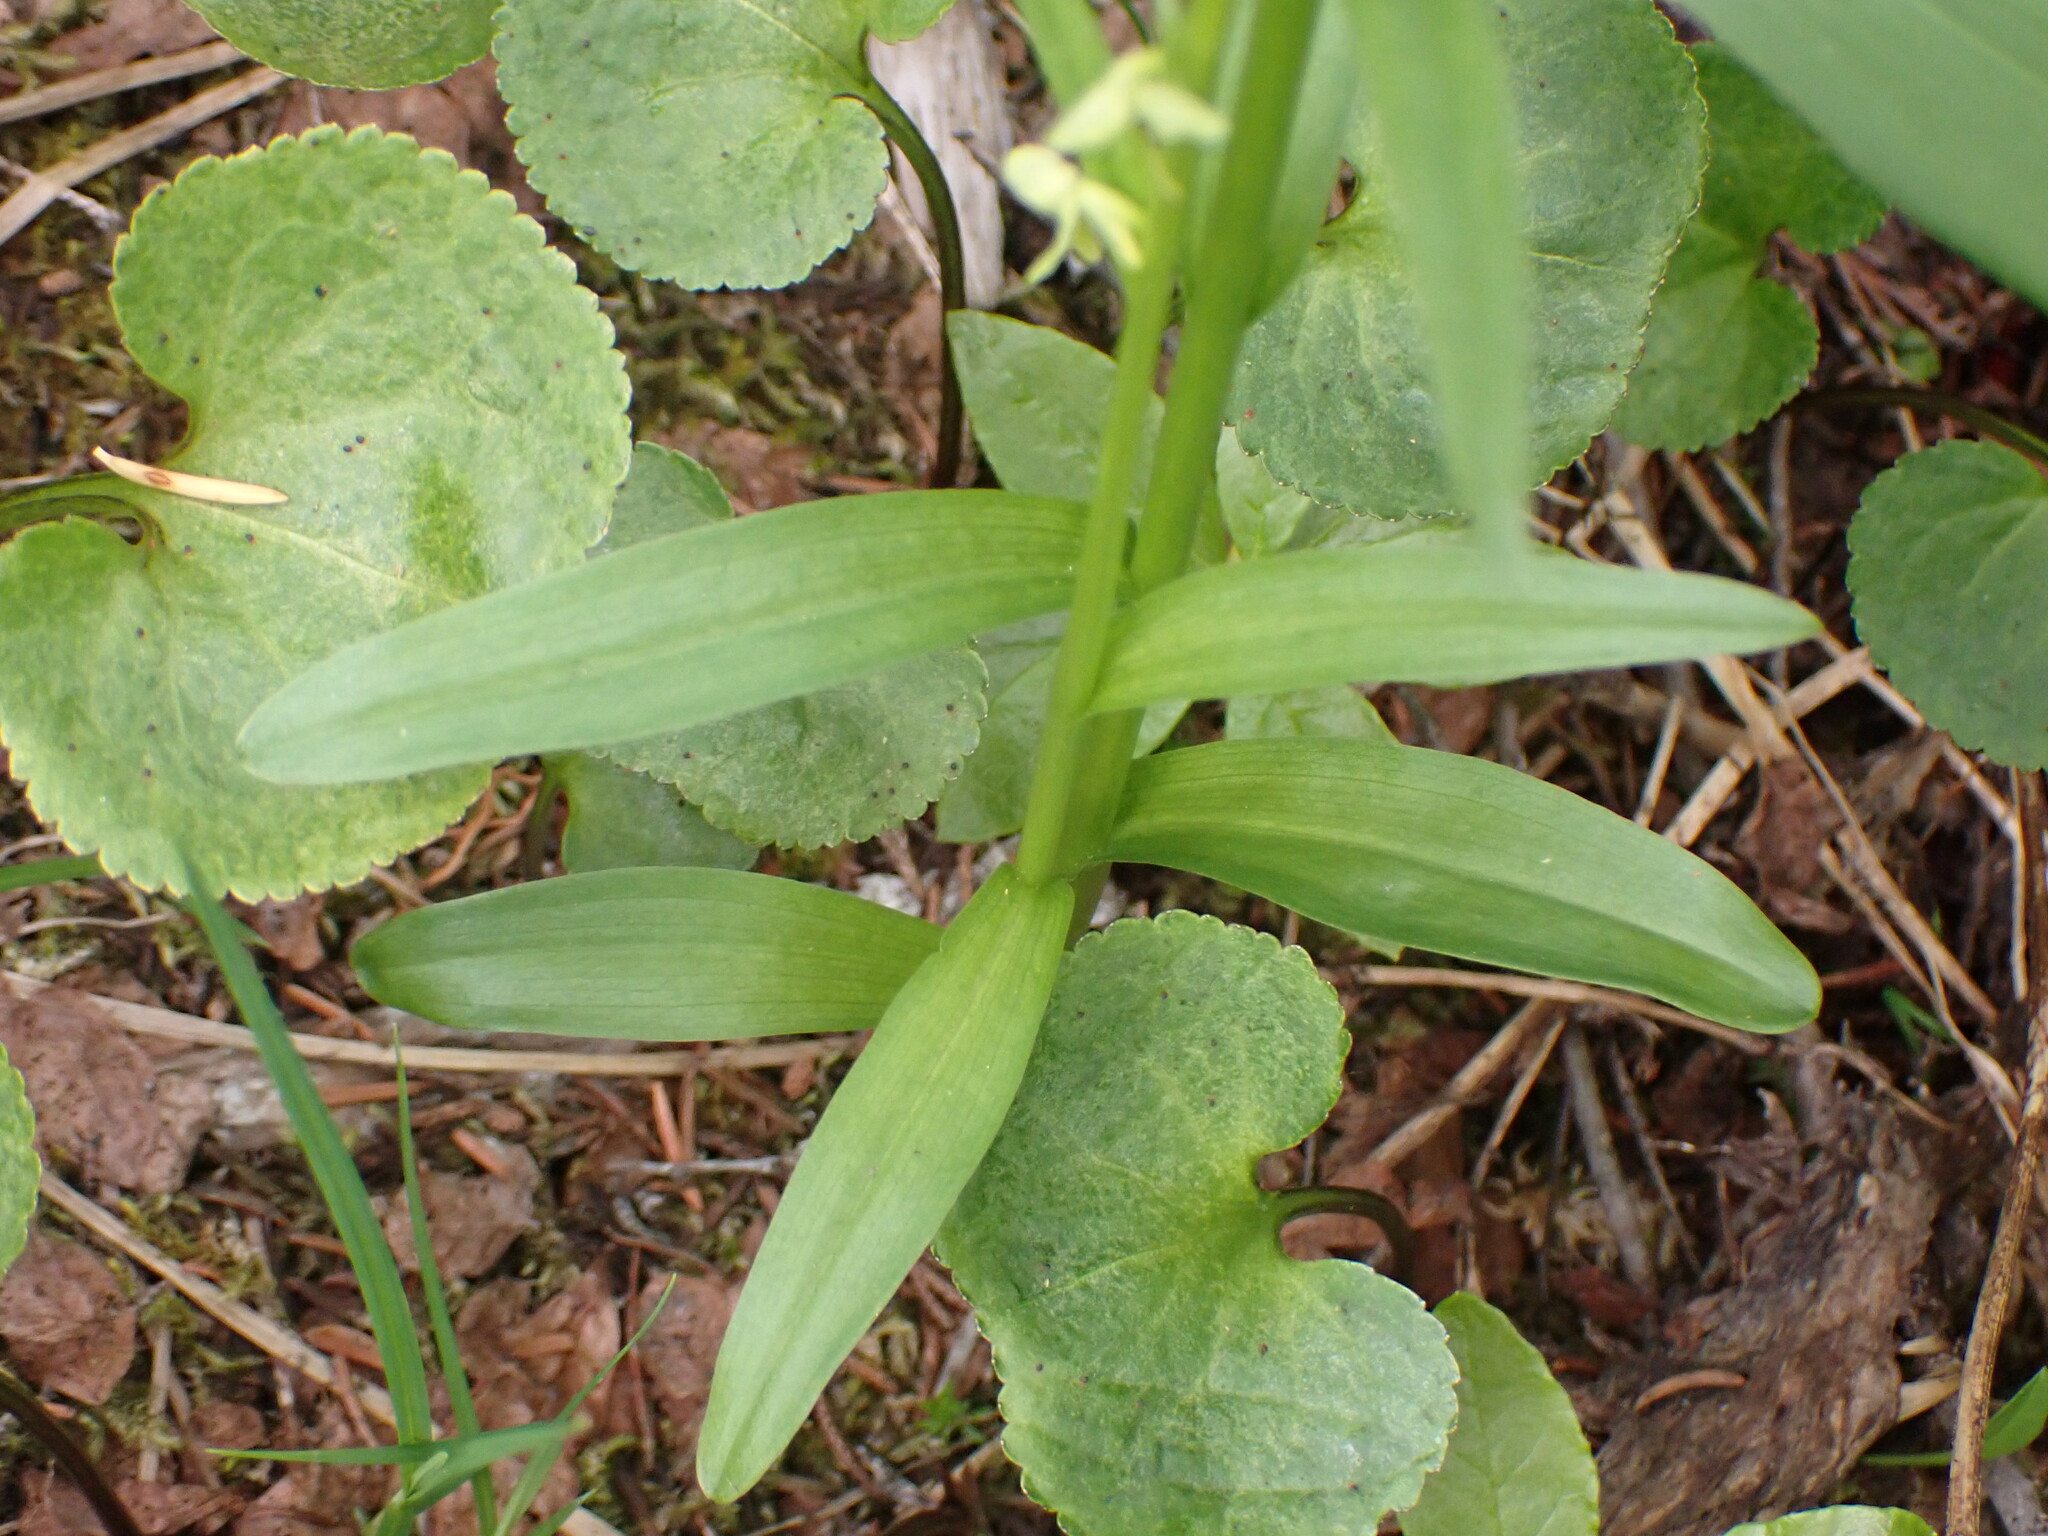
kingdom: Plantae
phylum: Tracheophyta
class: Liliopsida
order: Asparagales
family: Orchidaceae
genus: Platanthera
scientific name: Platanthera stricta
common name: Slender bog orchid
